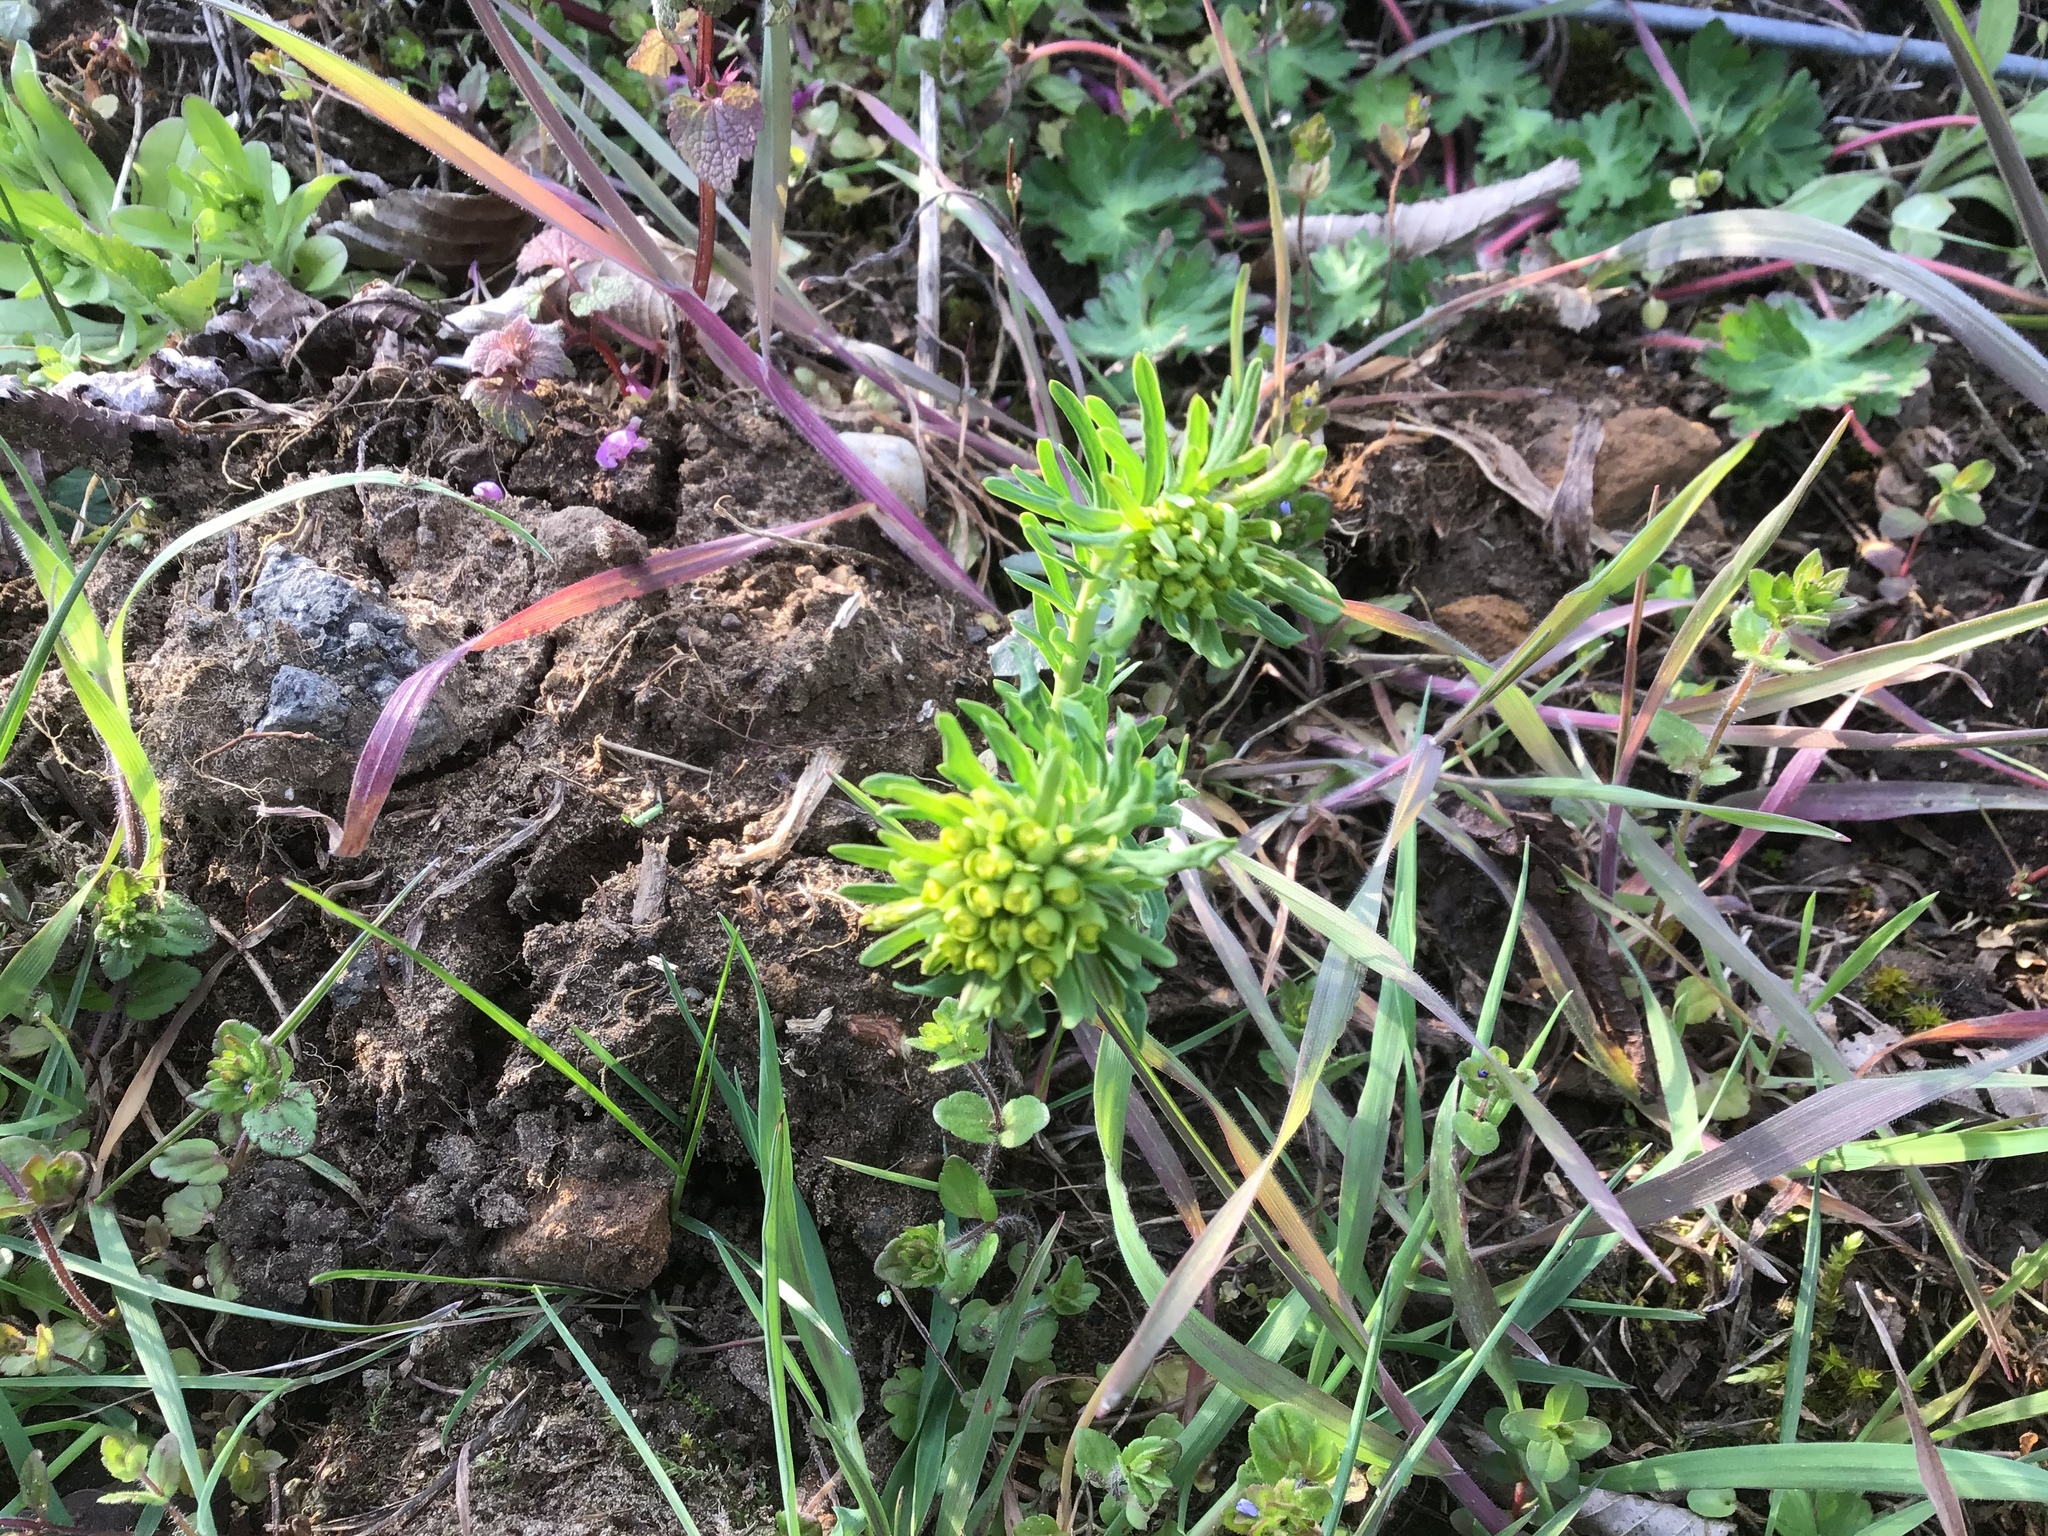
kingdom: Plantae
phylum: Tracheophyta
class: Magnoliopsida
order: Malpighiales
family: Euphorbiaceae
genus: Euphorbia
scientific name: Euphorbia cyparissias
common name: Cypress spurge
